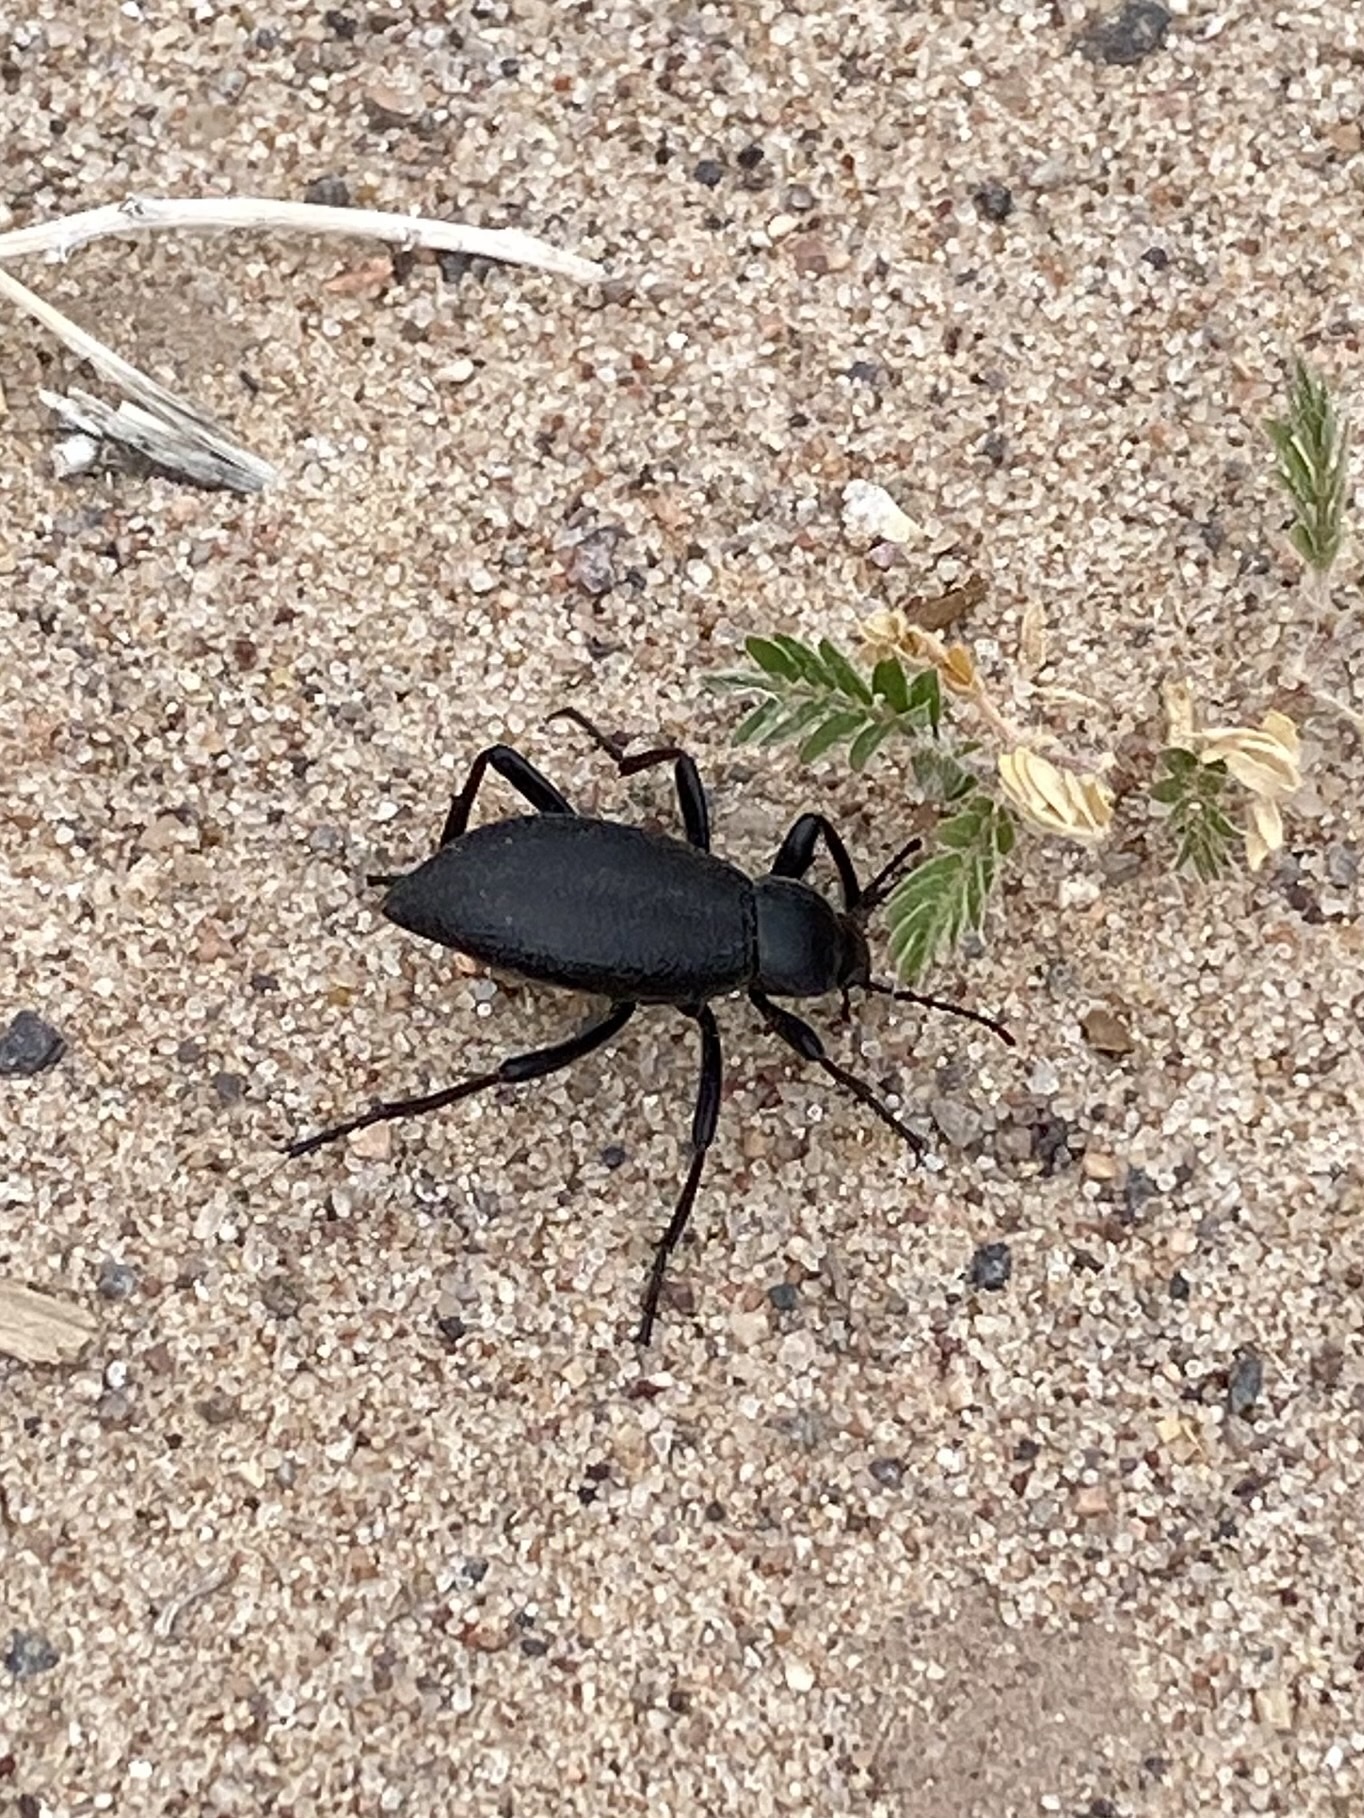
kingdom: Animalia
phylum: Arthropoda
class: Insecta
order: Coleoptera
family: Tenebrionidae
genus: Eleodes
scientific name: Eleodes sponsa
